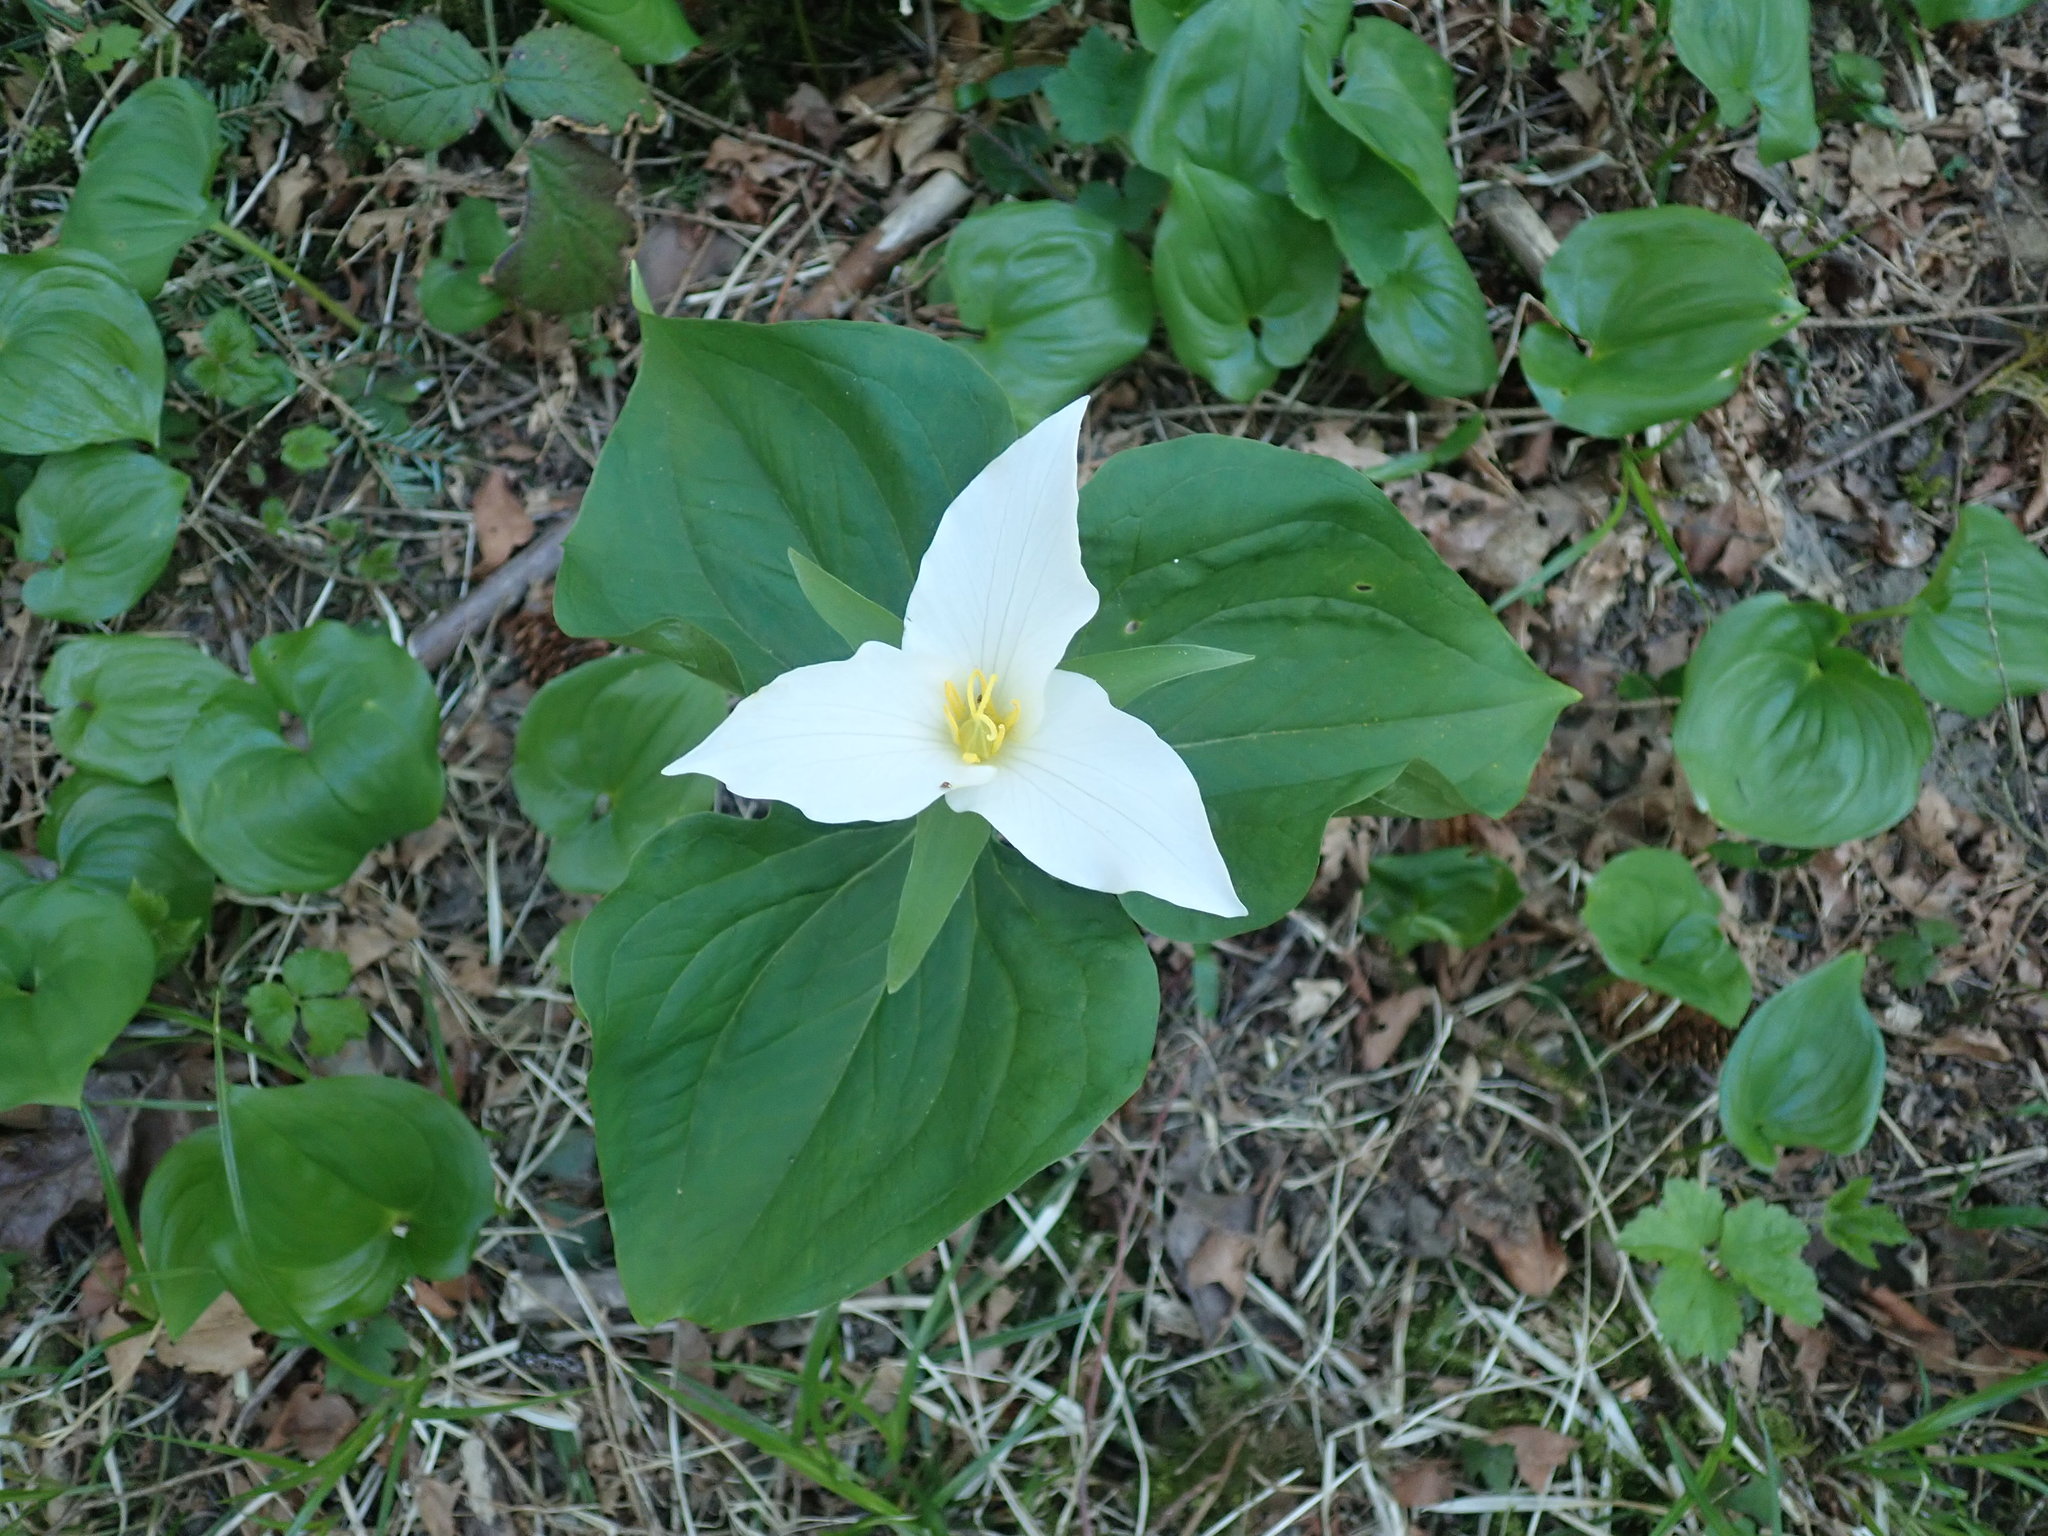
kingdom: Plantae
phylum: Tracheophyta
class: Liliopsida
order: Liliales
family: Melanthiaceae
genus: Trillium
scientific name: Trillium ovatum
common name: Pacific trillium
